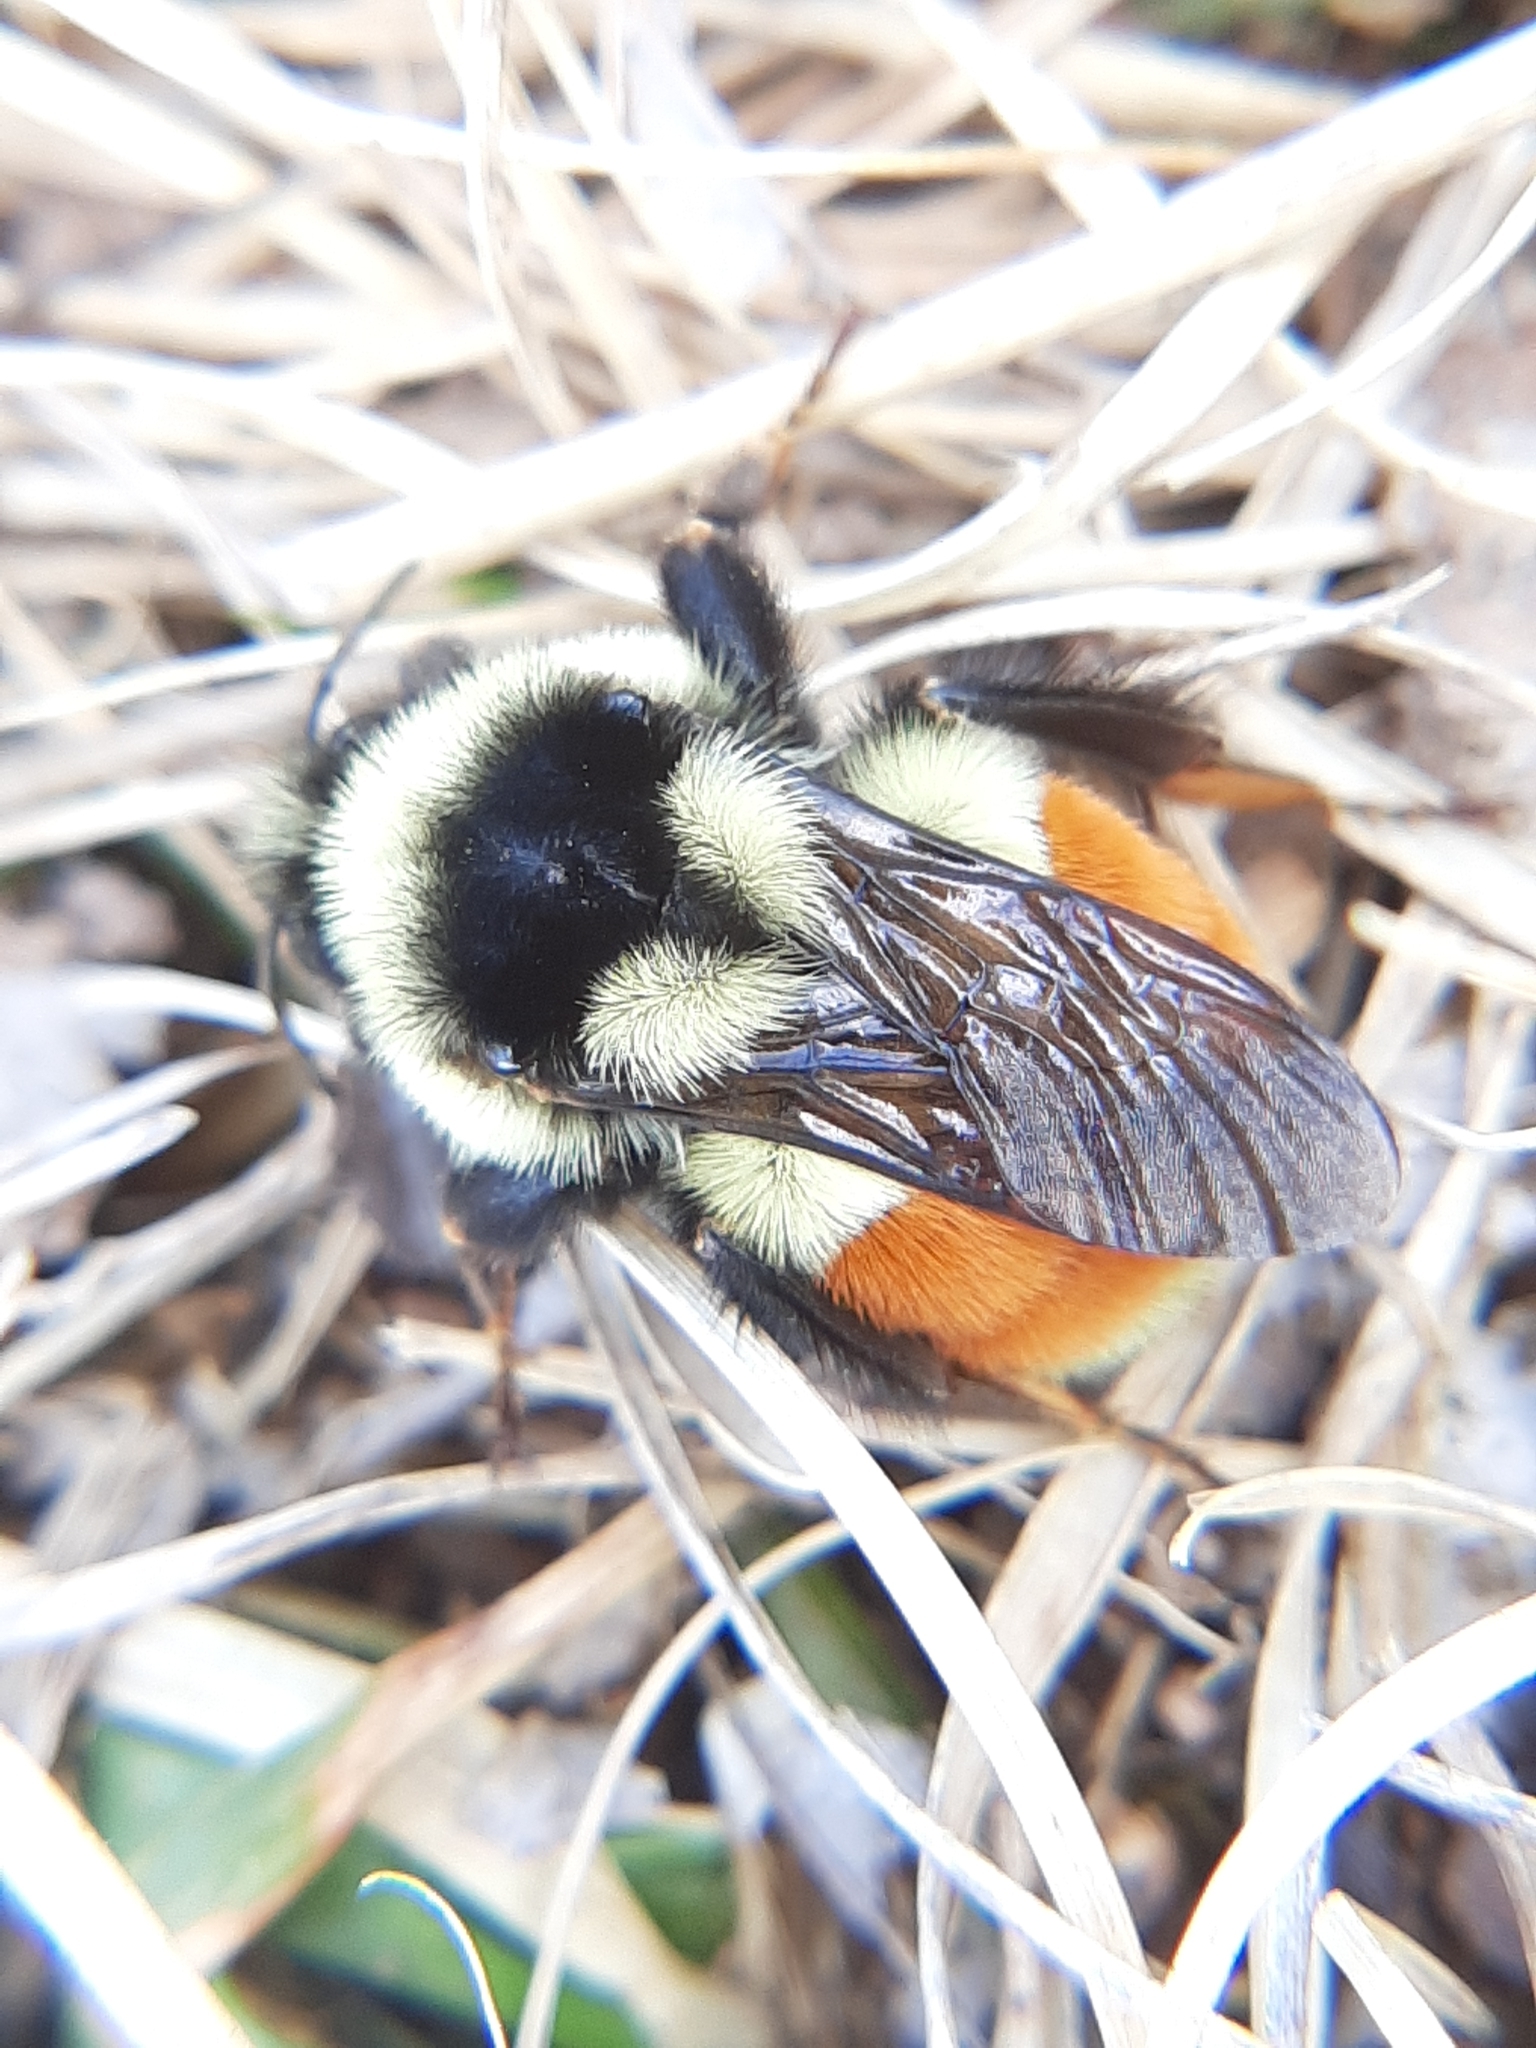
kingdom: Animalia
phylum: Arthropoda
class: Insecta
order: Hymenoptera
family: Apidae
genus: Bombus
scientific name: Bombus ternarius
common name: Tri-colored bumble bee
